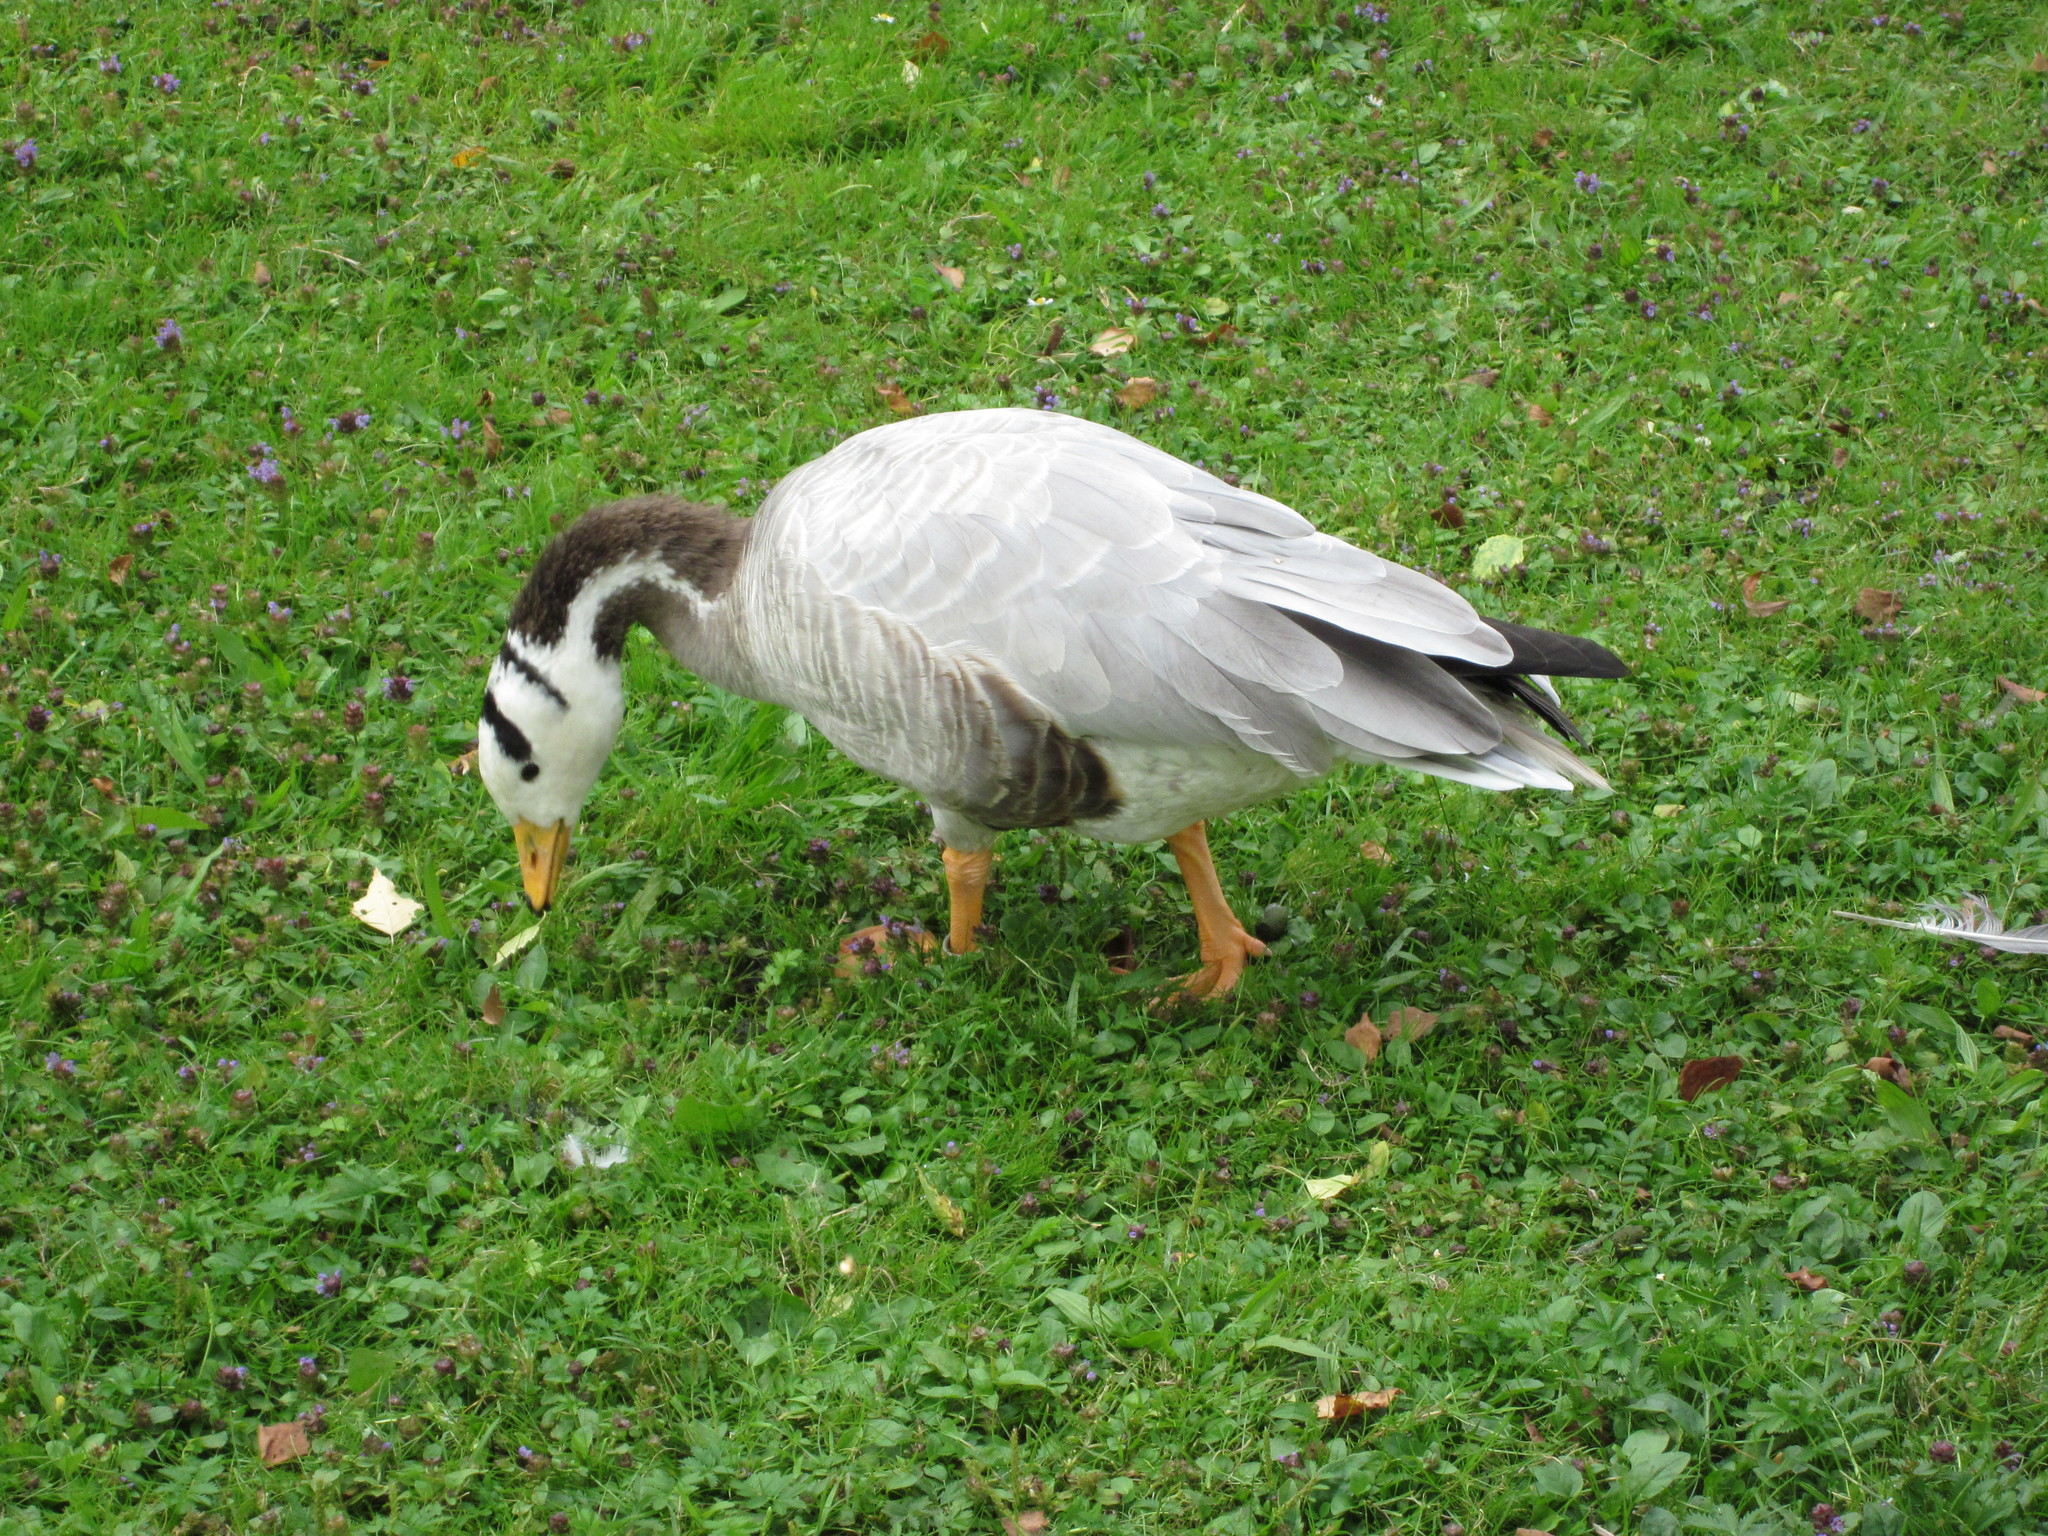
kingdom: Animalia
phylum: Chordata
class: Aves
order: Anseriformes
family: Anatidae
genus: Anser
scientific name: Anser indicus
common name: Bar-headed goose
